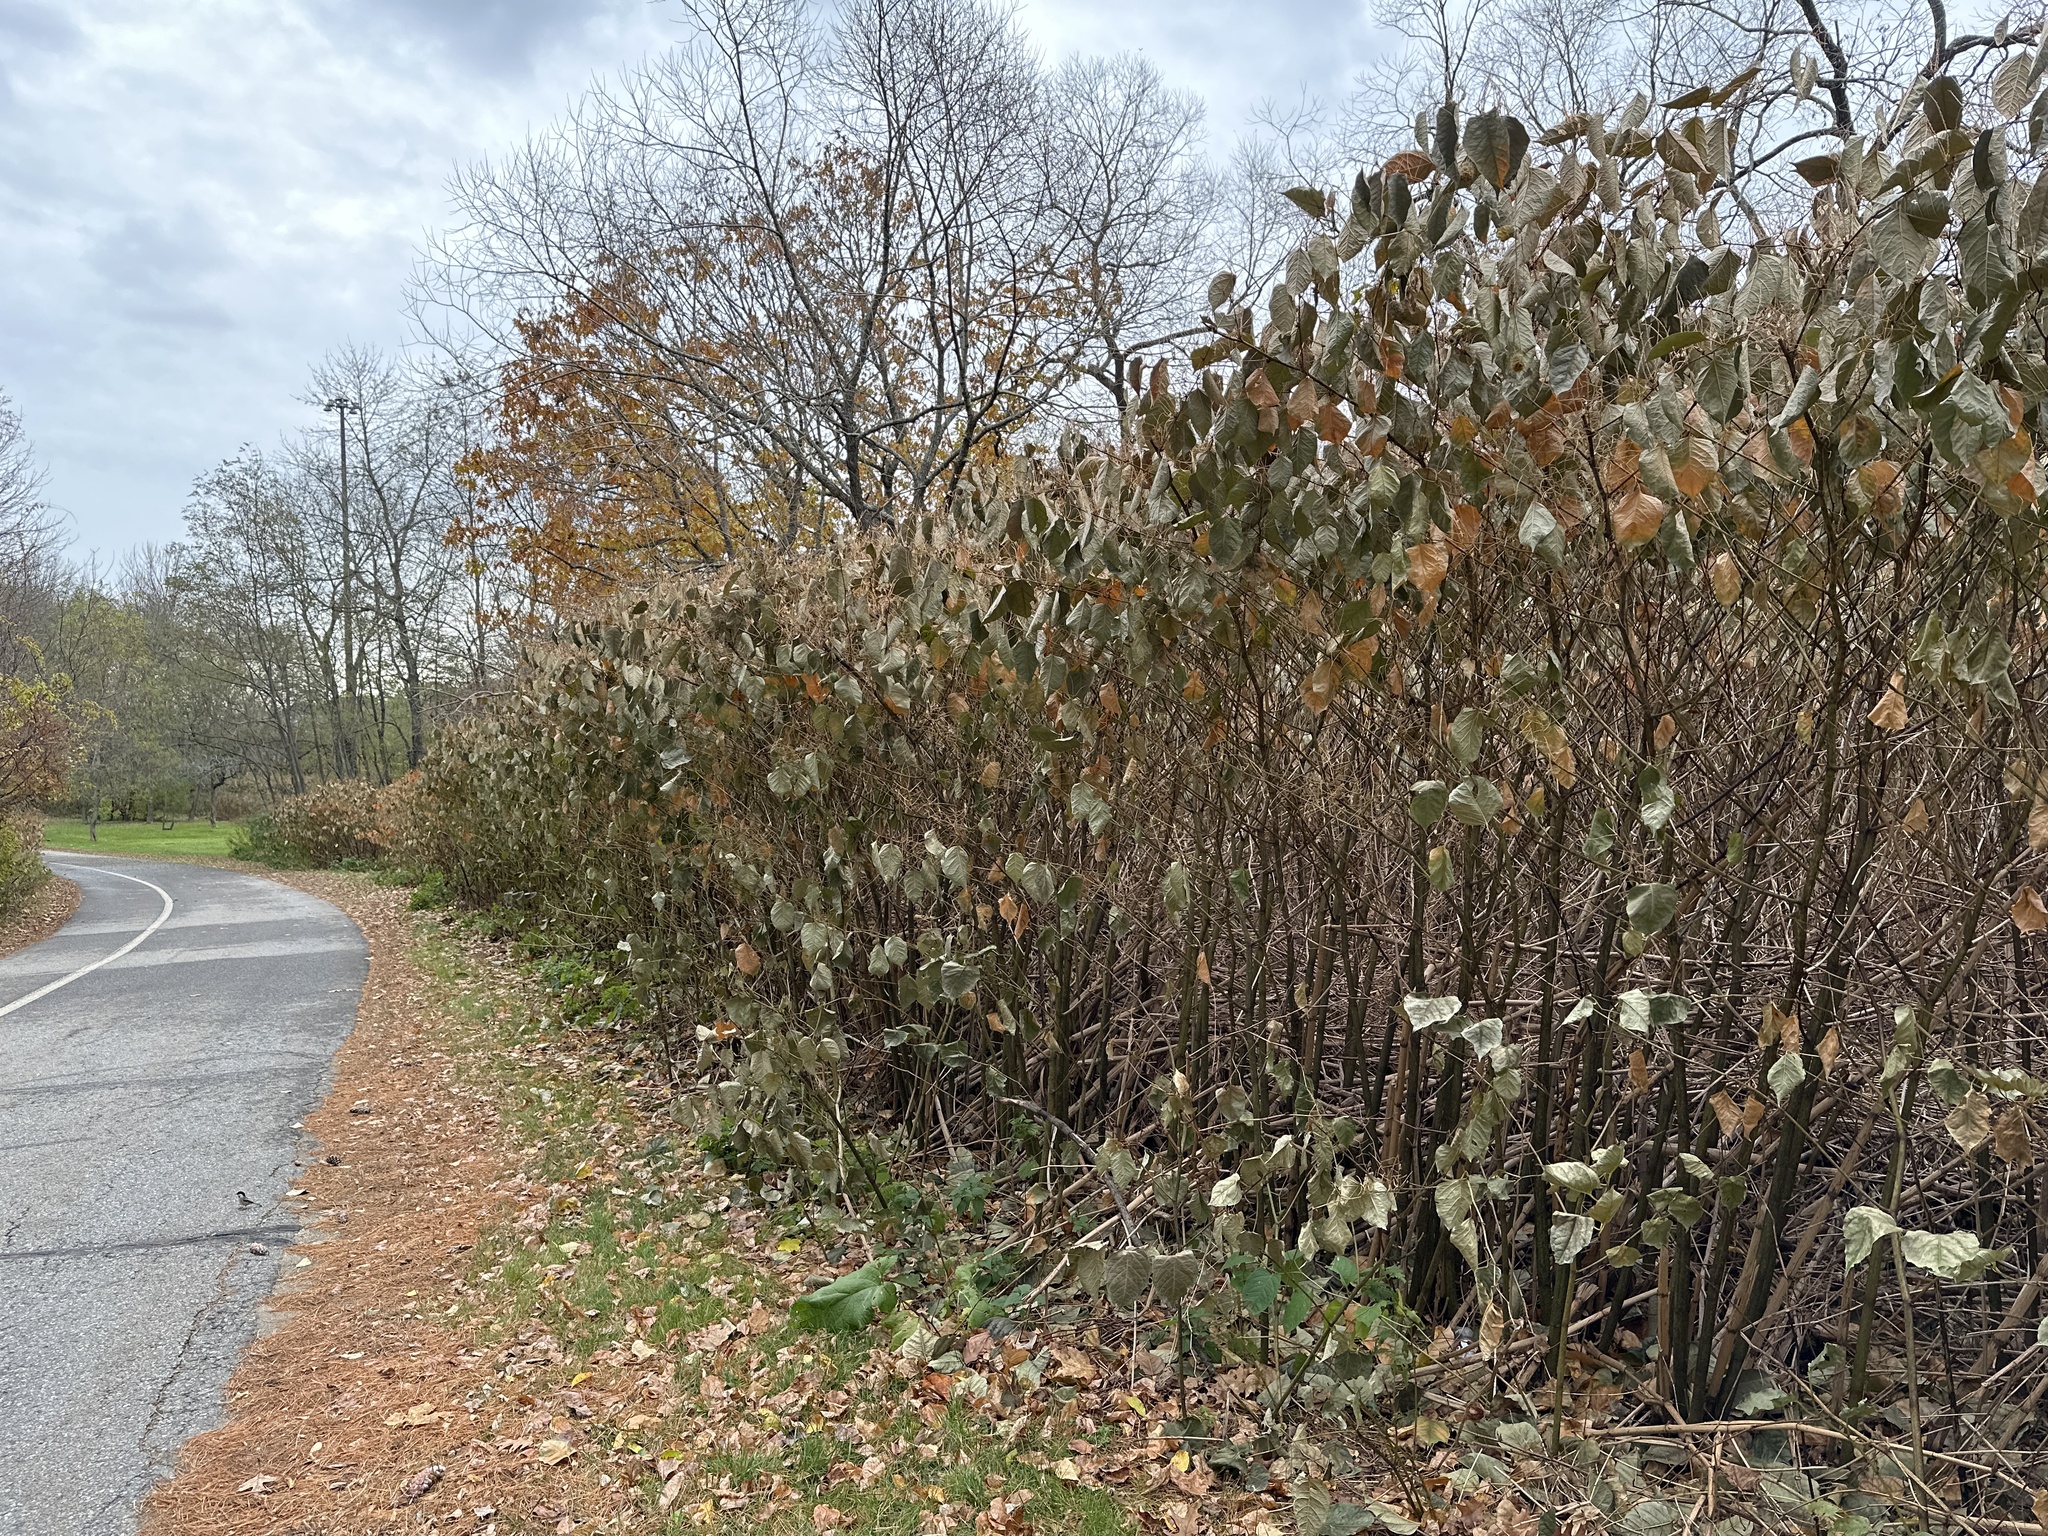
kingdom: Plantae
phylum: Tracheophyta
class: Magnoliopsida
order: Caryophyllales
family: Polygonaceae
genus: Reynoutria
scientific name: Reynoutria japonica
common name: Japanese knotweed
